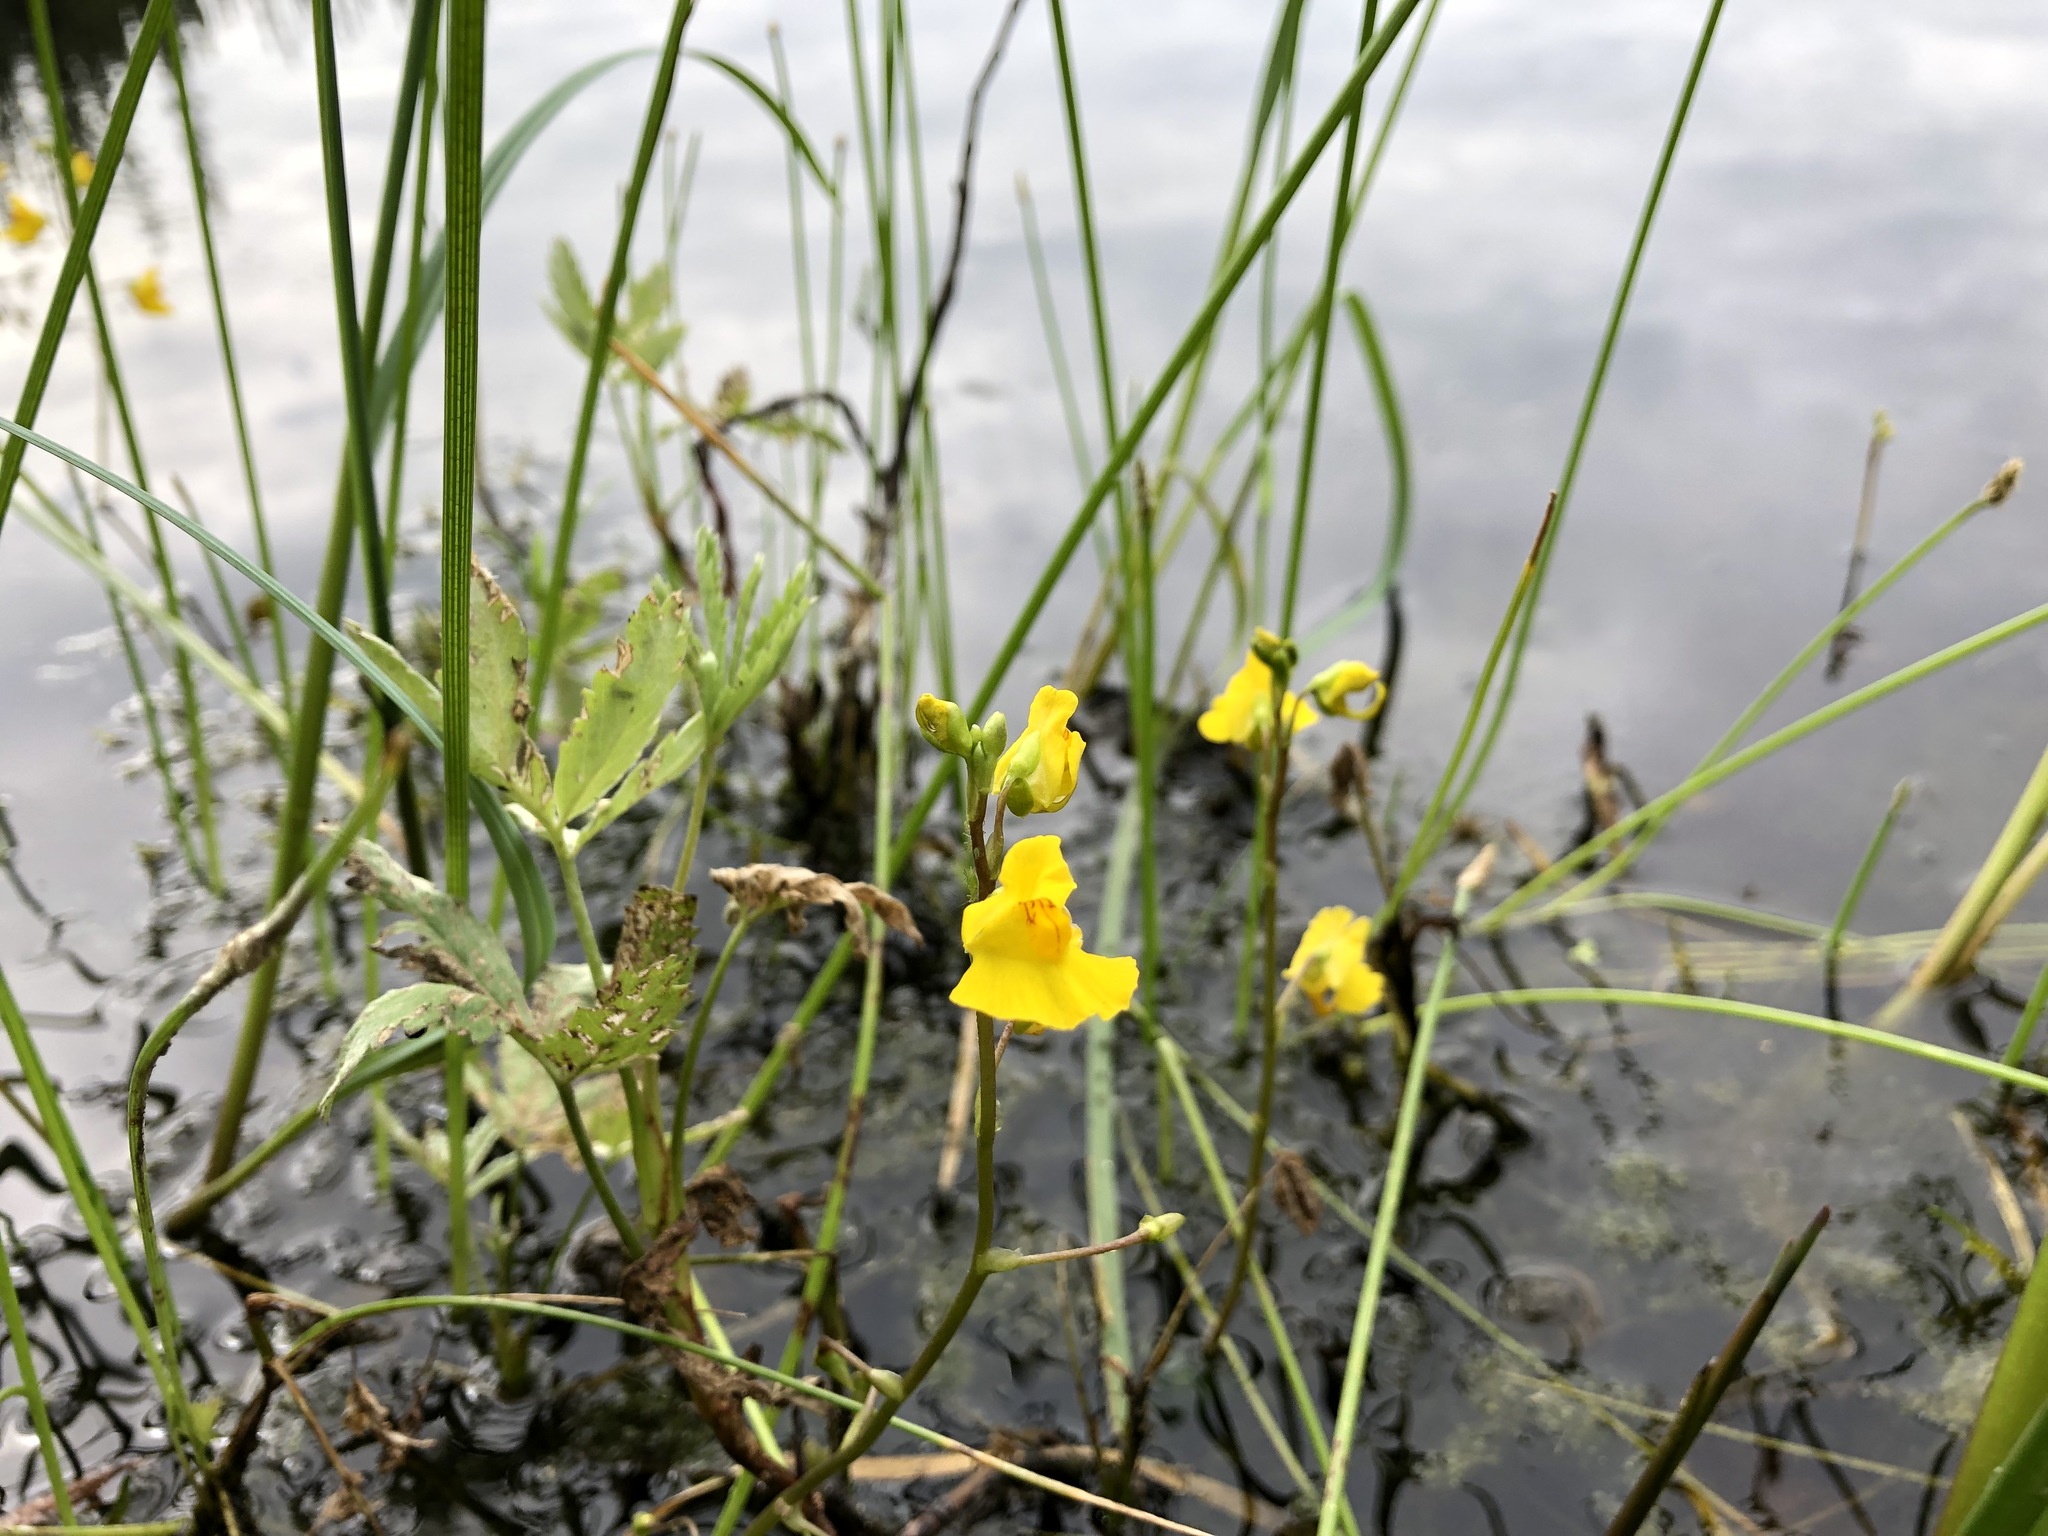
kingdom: Plantae
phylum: Tracheophyta
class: Magnoliopsida
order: Lamiales
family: Lentibulariaceae
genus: Utricularia
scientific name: Utricularia macrorhiza
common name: Common bladderwort
